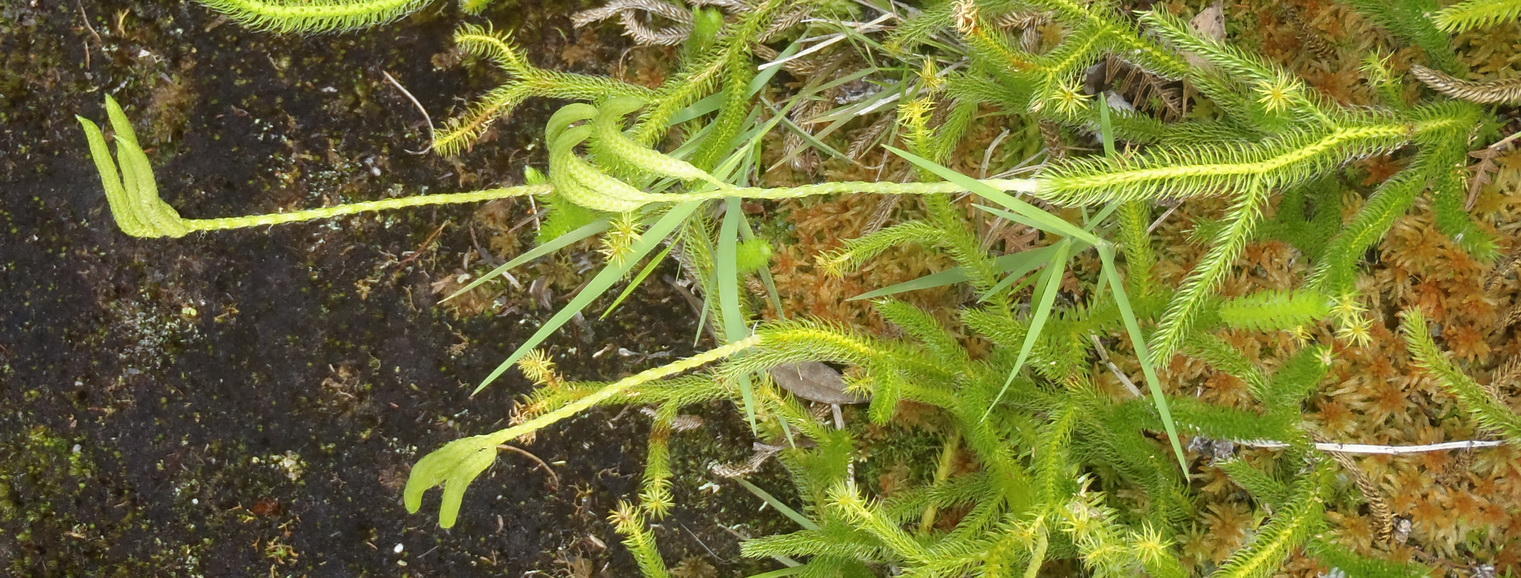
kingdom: Plantae
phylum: Tracheophyta
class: Lycopodiopsida
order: Lycopodiales
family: Lycopodiaceae
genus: Lycopodium
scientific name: Lycopodium clavatum
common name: Stag's-horn clubmoss
